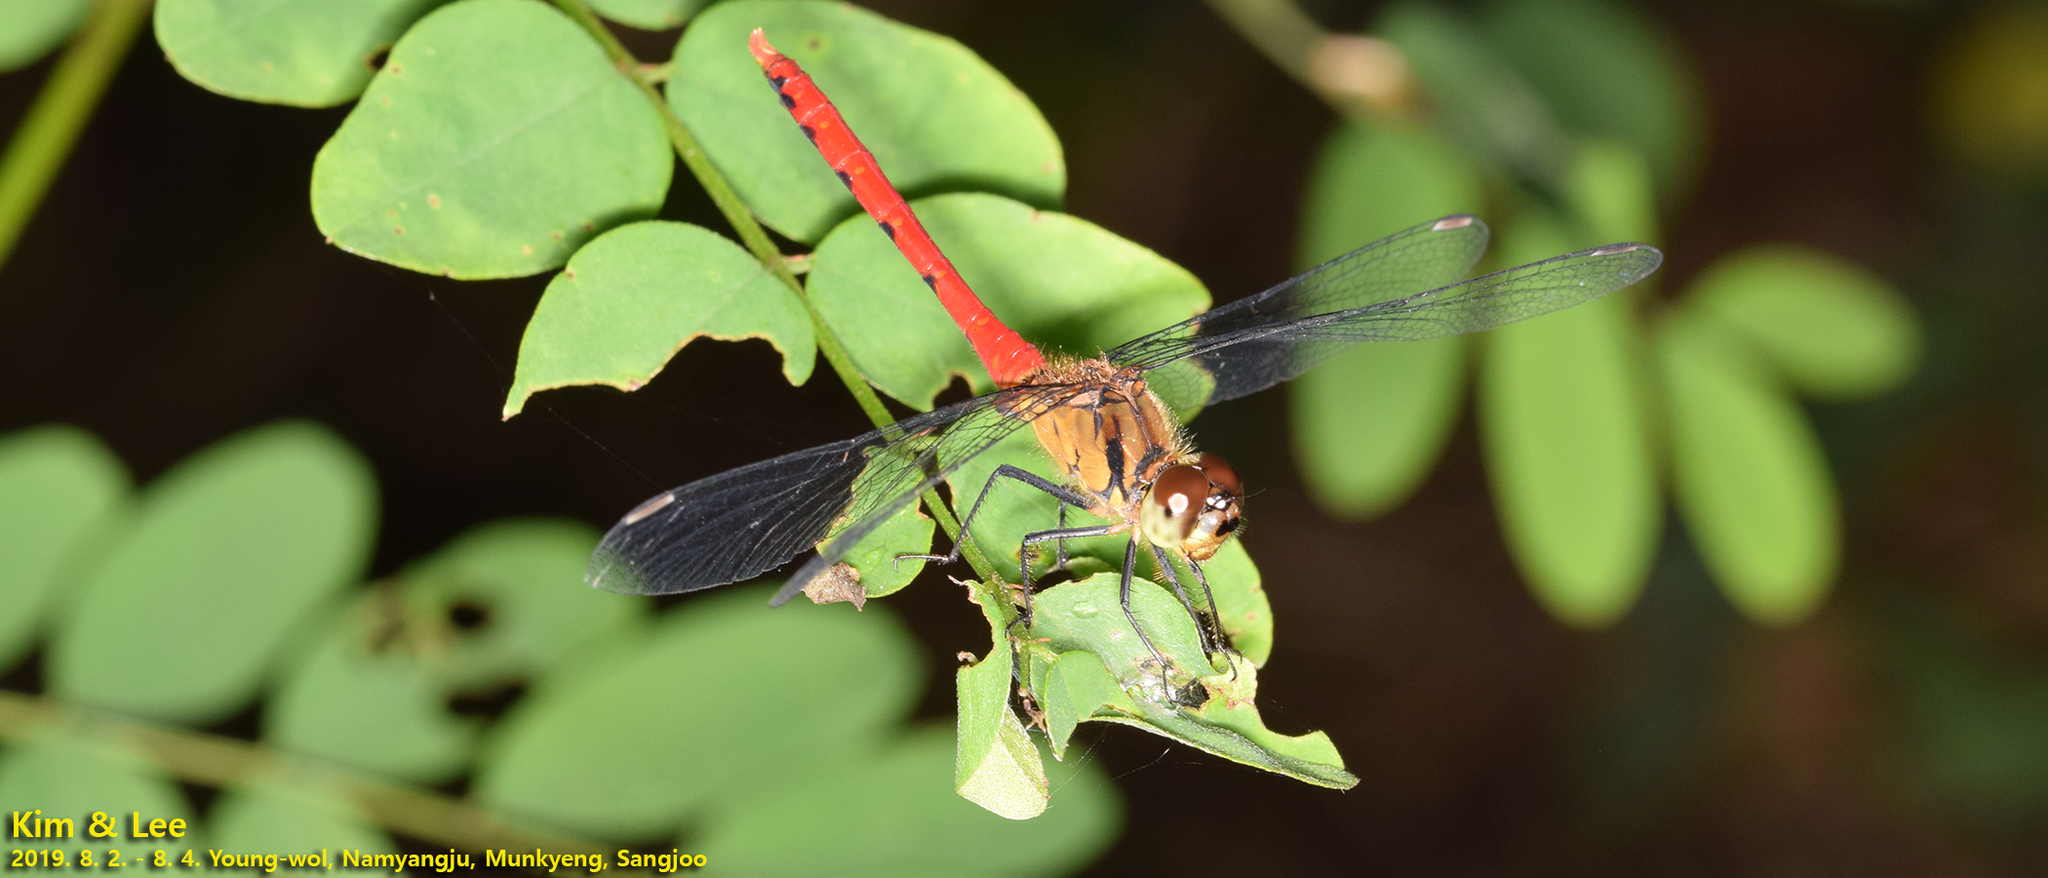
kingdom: Animalia
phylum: Arthropoda
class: Insecta
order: Odonata
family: Libellulidae
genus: Sympetrum
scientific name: Sympetrum eroticum
